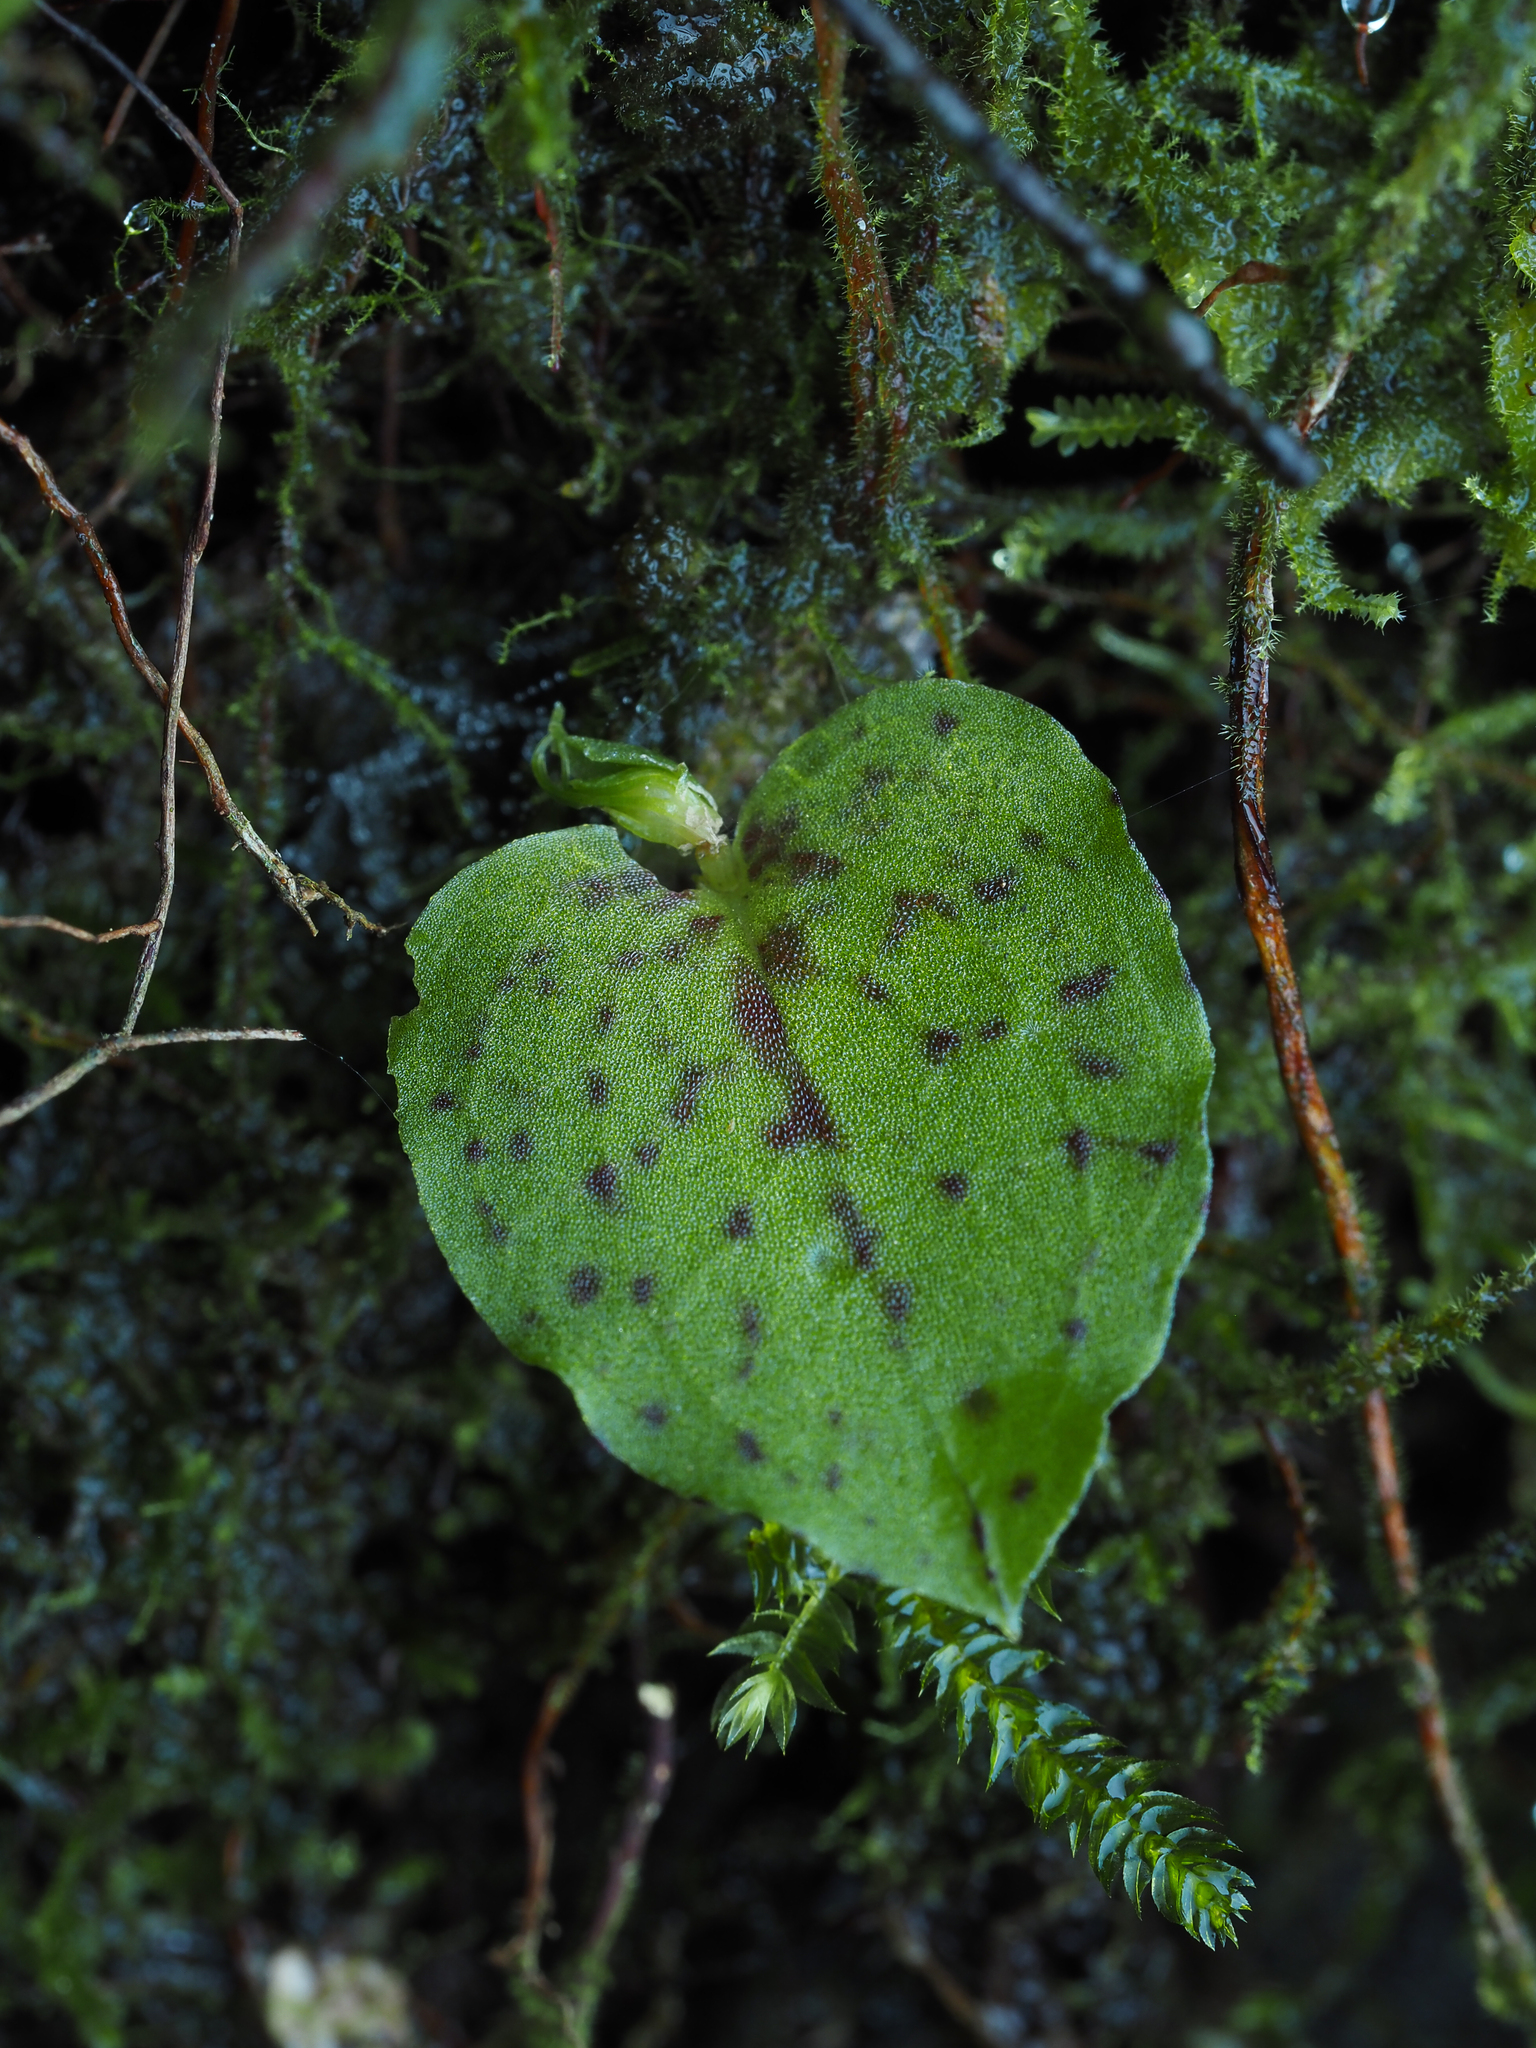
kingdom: Plantae
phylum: Tracheophyta
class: Liliopsida
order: Asparagales
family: Orchidaceae
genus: Corybas
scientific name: Corybas oblongus
